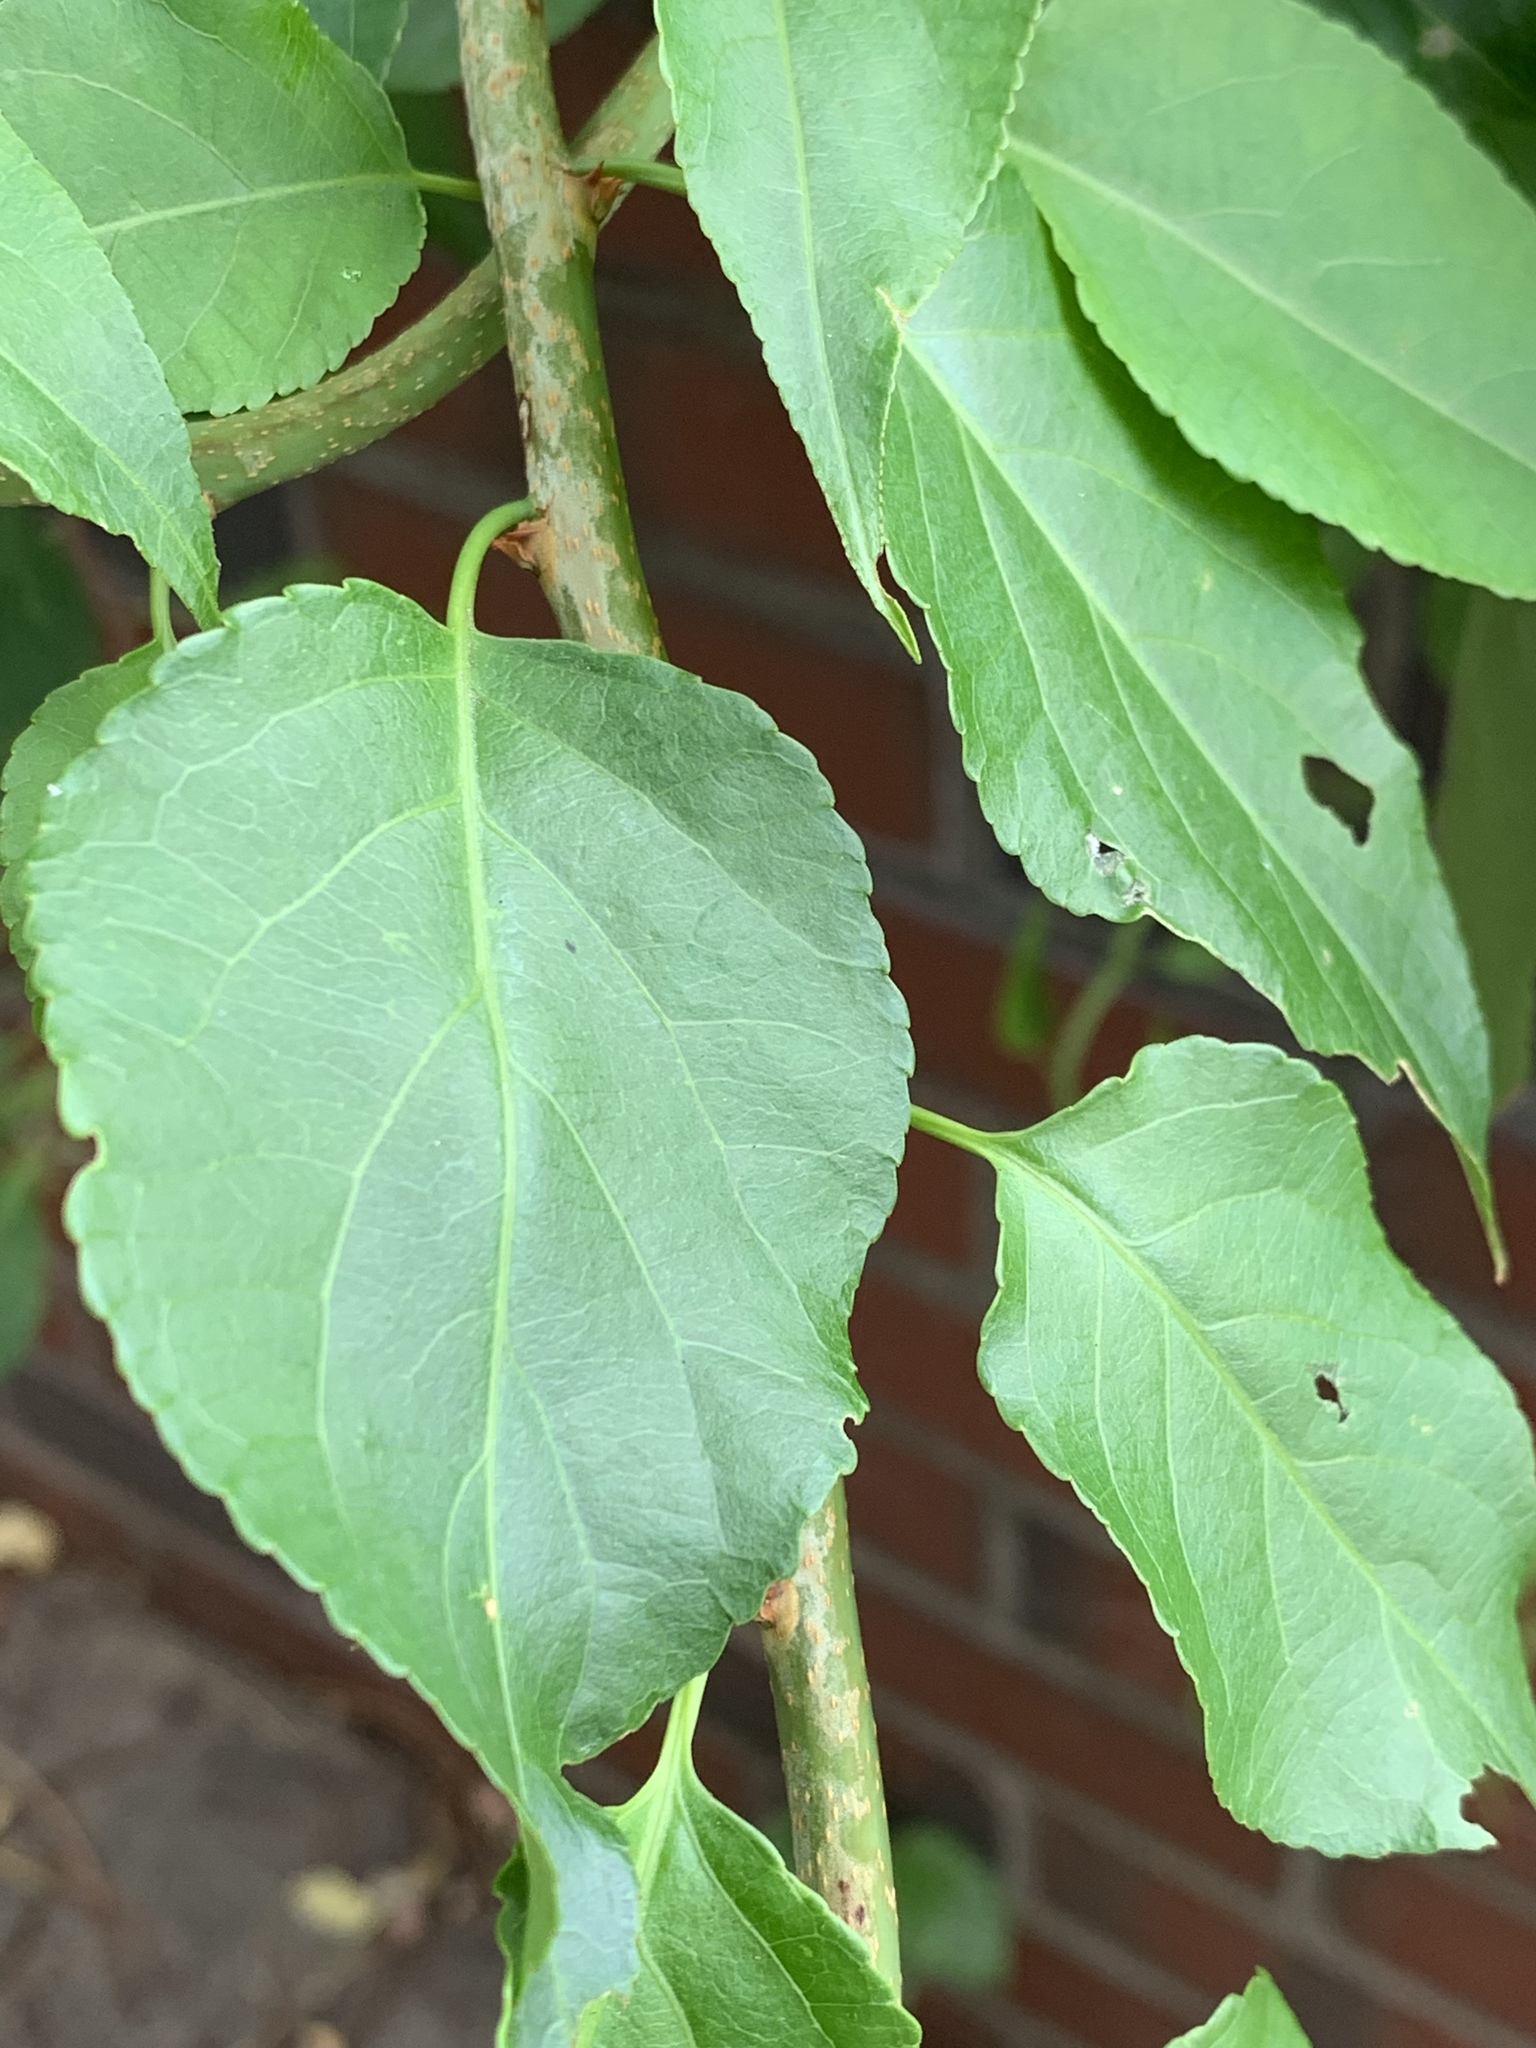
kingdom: Plantae
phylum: Tracheophyta
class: Magnoliopsida
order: Celastrales
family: Celastraceae
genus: Celastrus
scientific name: Celastrus orbiculatus
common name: Oriental bittersweet
